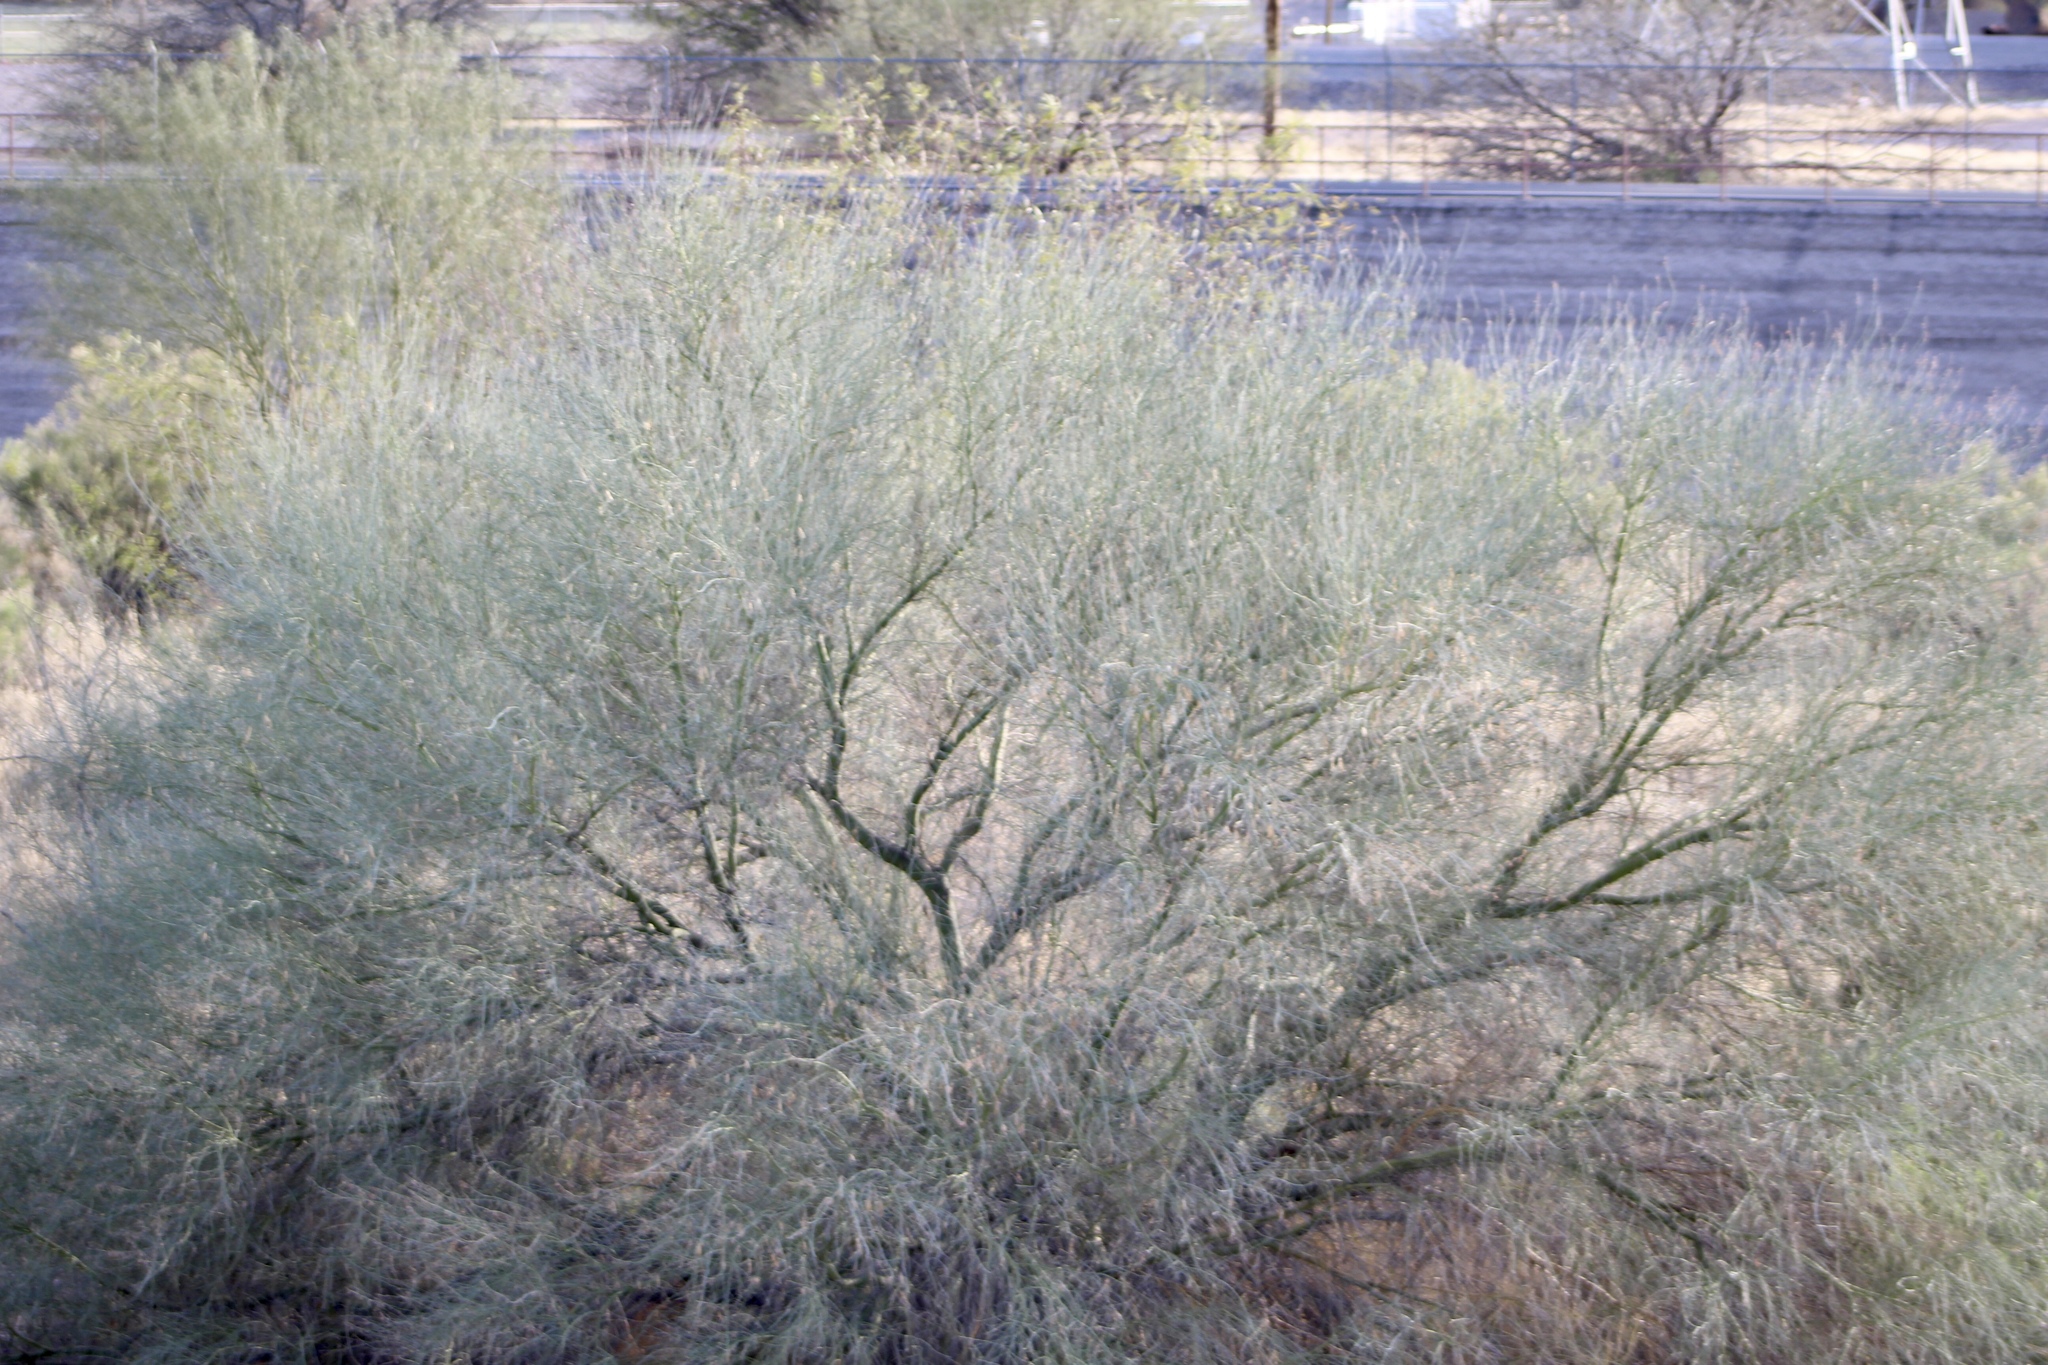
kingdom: Plantae
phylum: Tracheophyta
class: Magnoliopsida
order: Fabales
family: Fabaceae
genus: Parkinsonia
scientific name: Parkinsonia florida
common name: Blue paloverde
